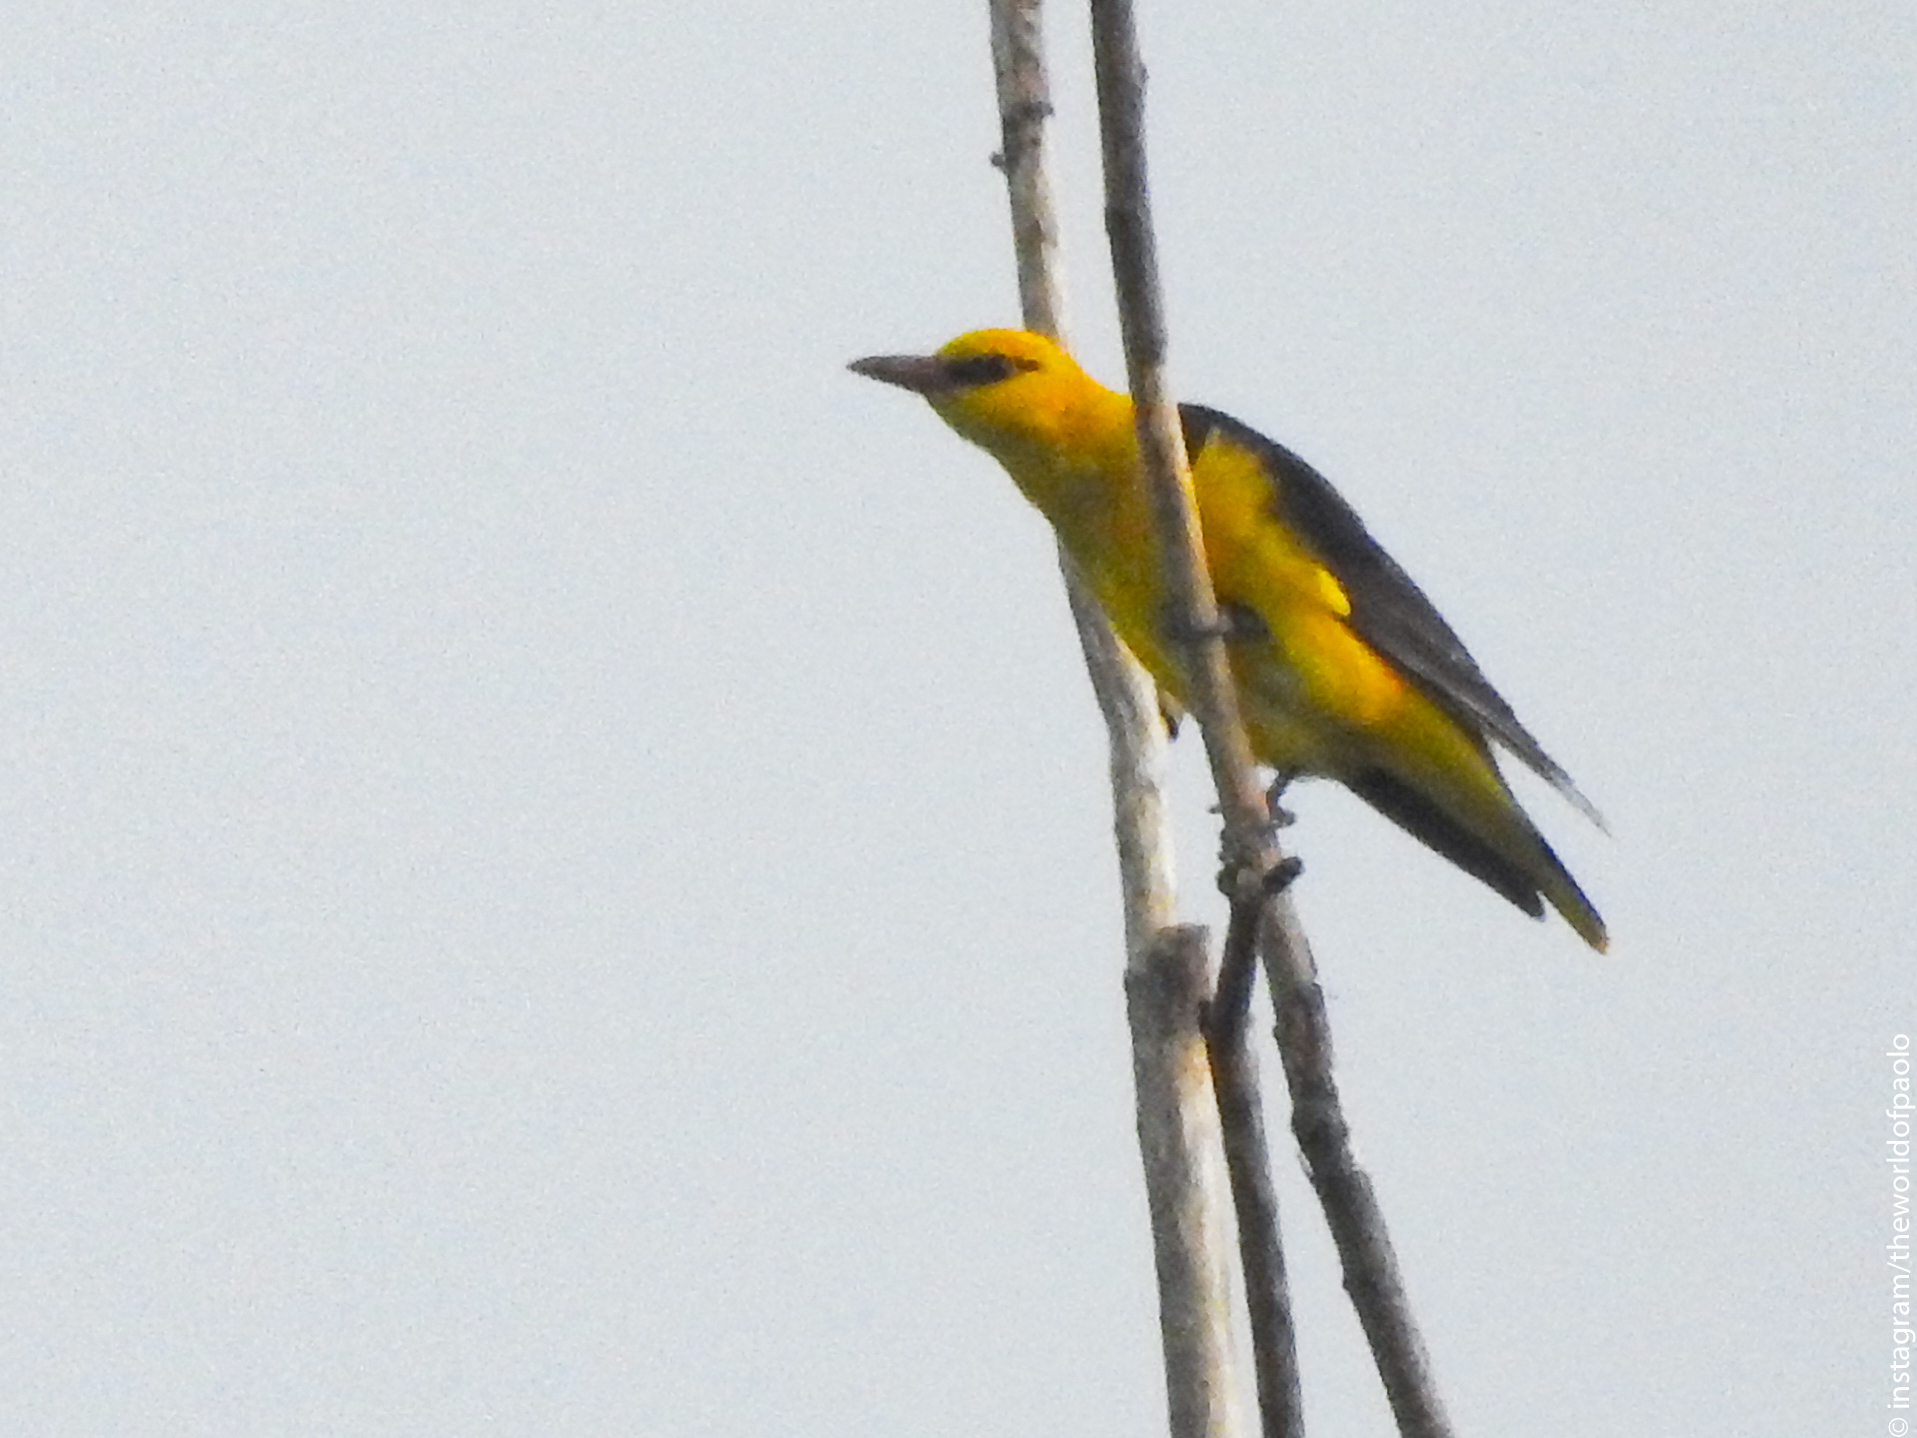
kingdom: Animalia
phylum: Chordata
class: Aves
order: Passeriformes
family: Oriolidae
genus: Oriolus
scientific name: Oriolus oriolus
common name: Eurasian golden oriole
